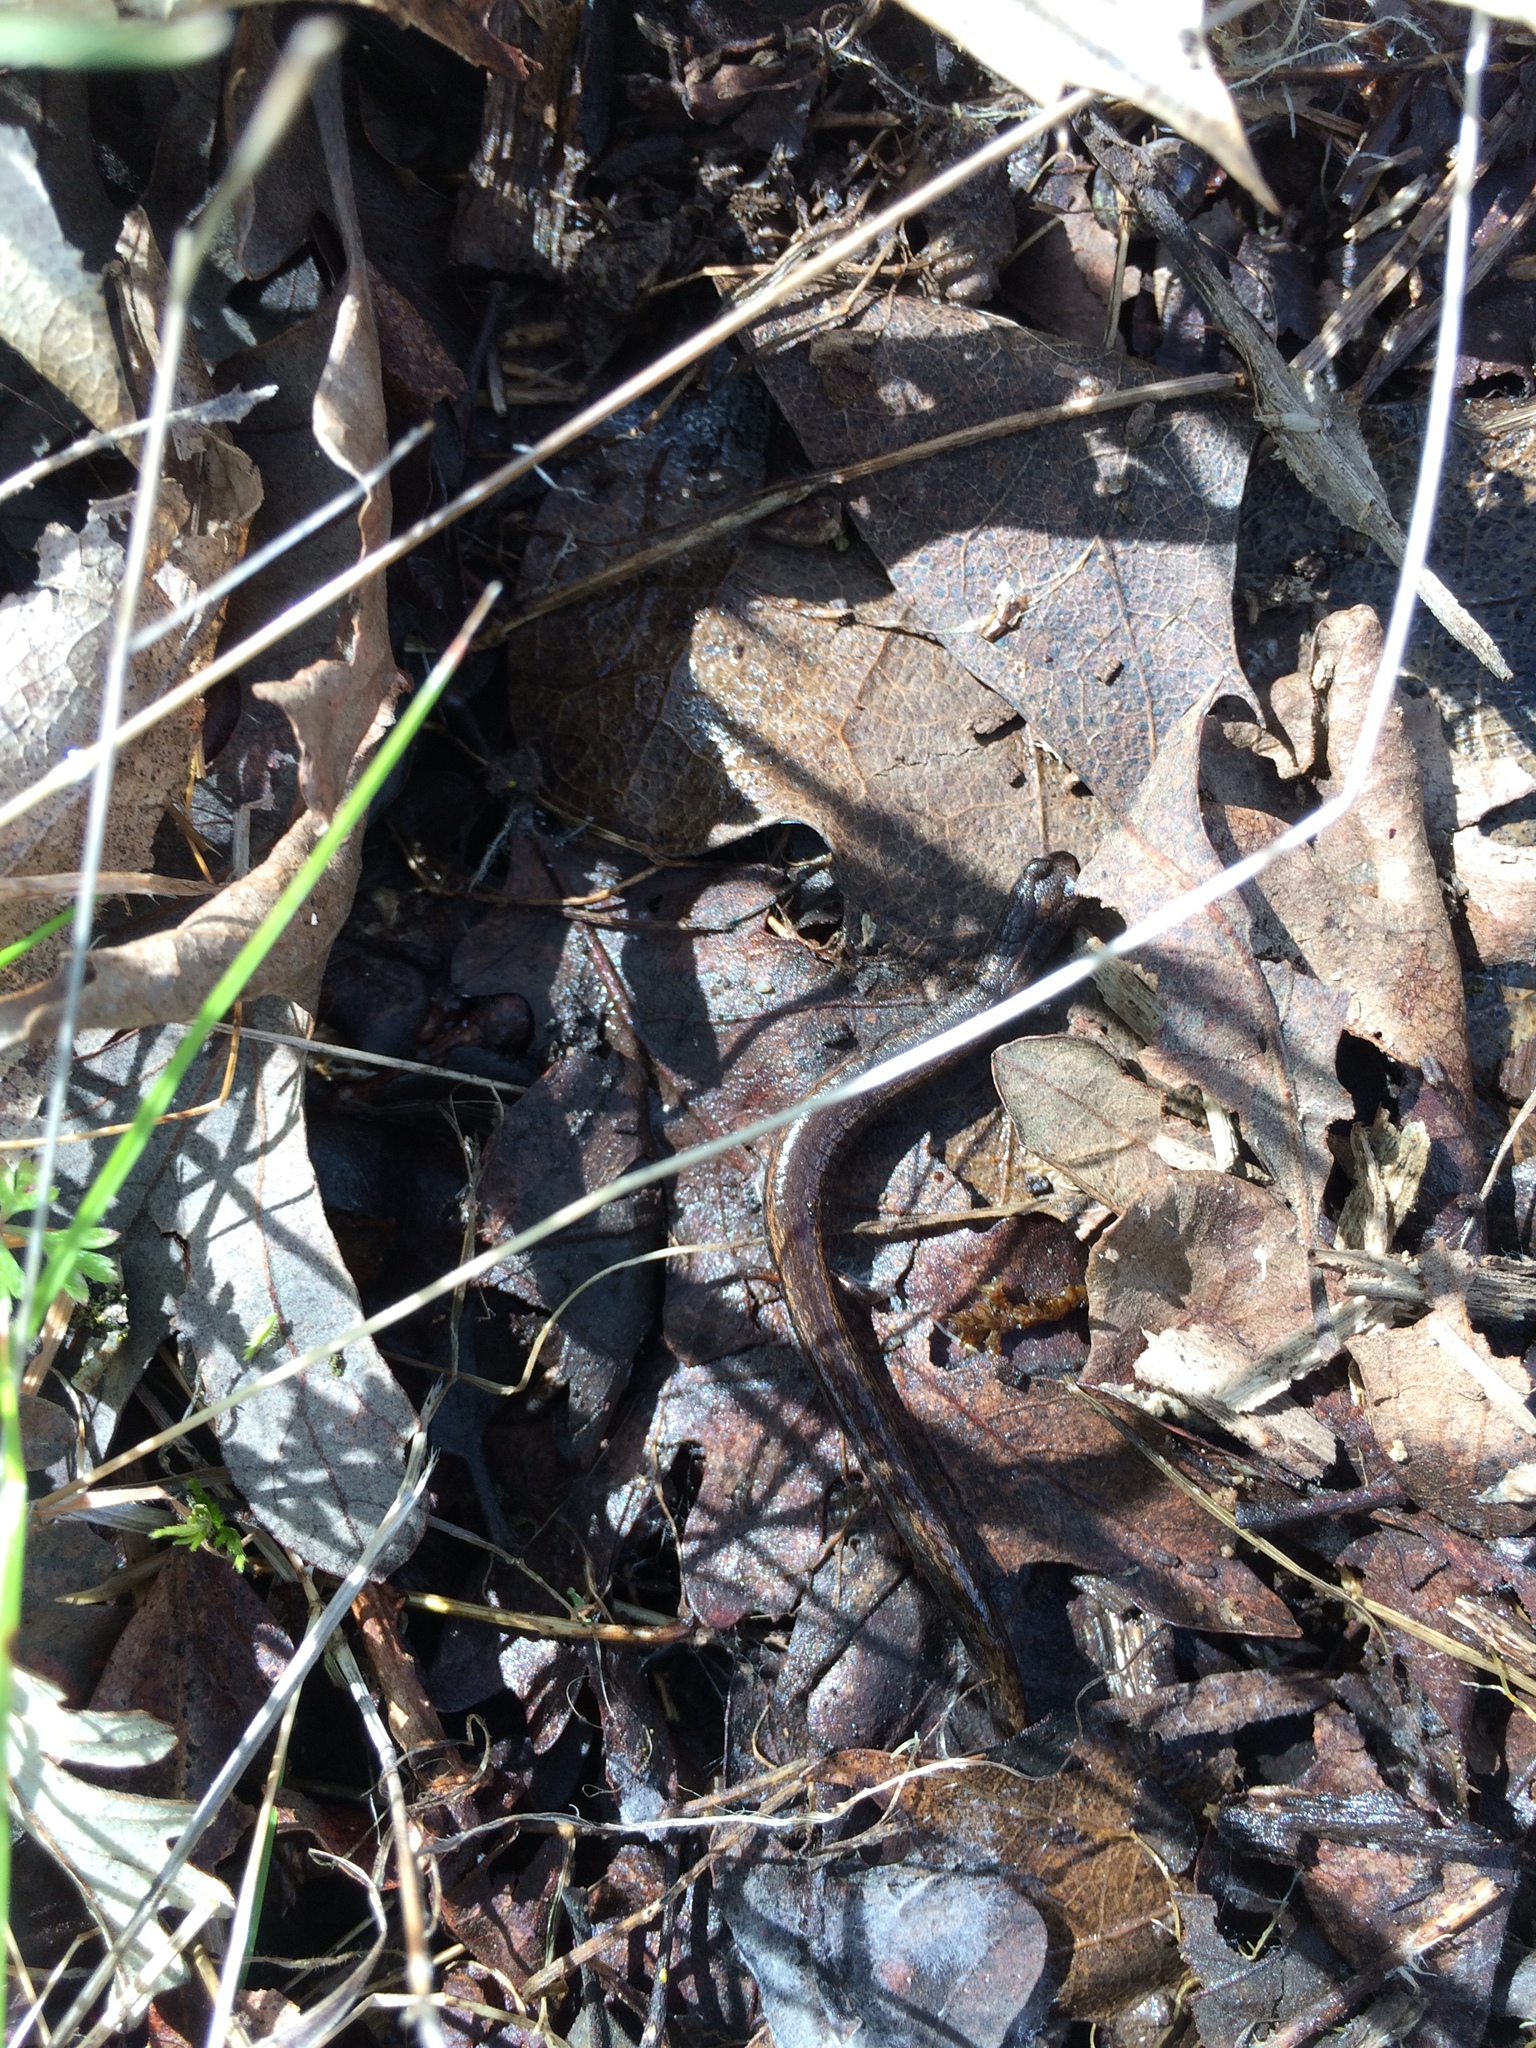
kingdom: Animalia
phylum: Chordata
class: Amphibia
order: Caudata
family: Plethodontidae
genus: Batrachoseps
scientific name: Batrachoseps attenuatus
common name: California slender salamander
